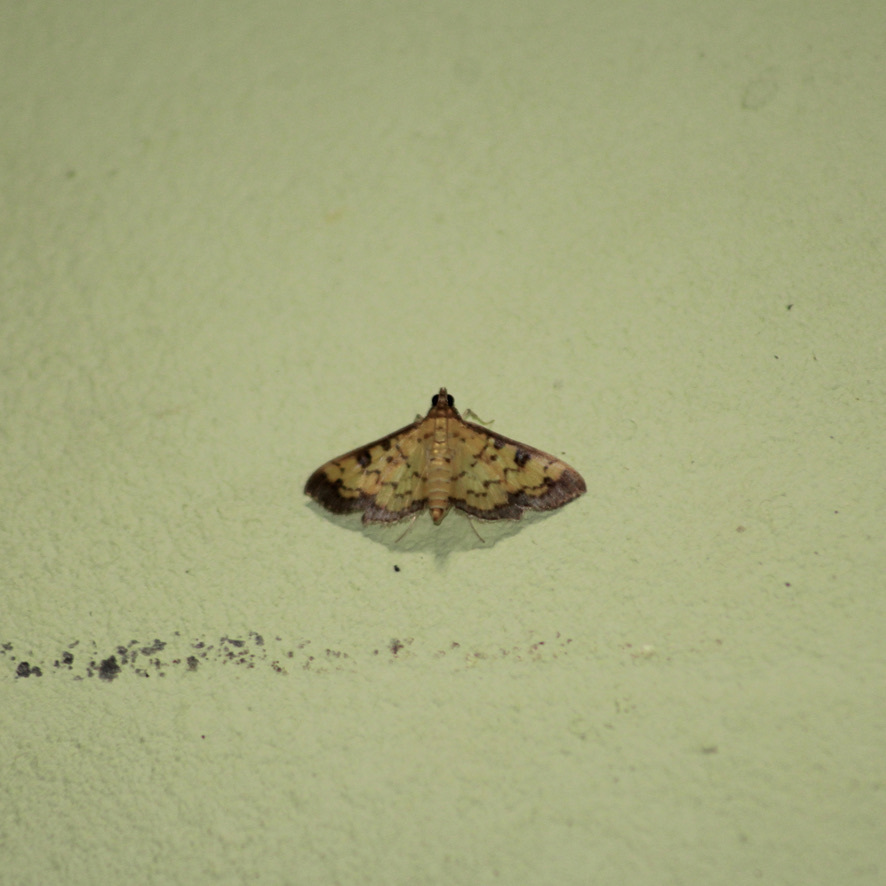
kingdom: Animalia
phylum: Arthropoda
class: Insecta
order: Lepidoptera
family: Crambidae
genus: Diacme
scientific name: Diacme mopsalis
